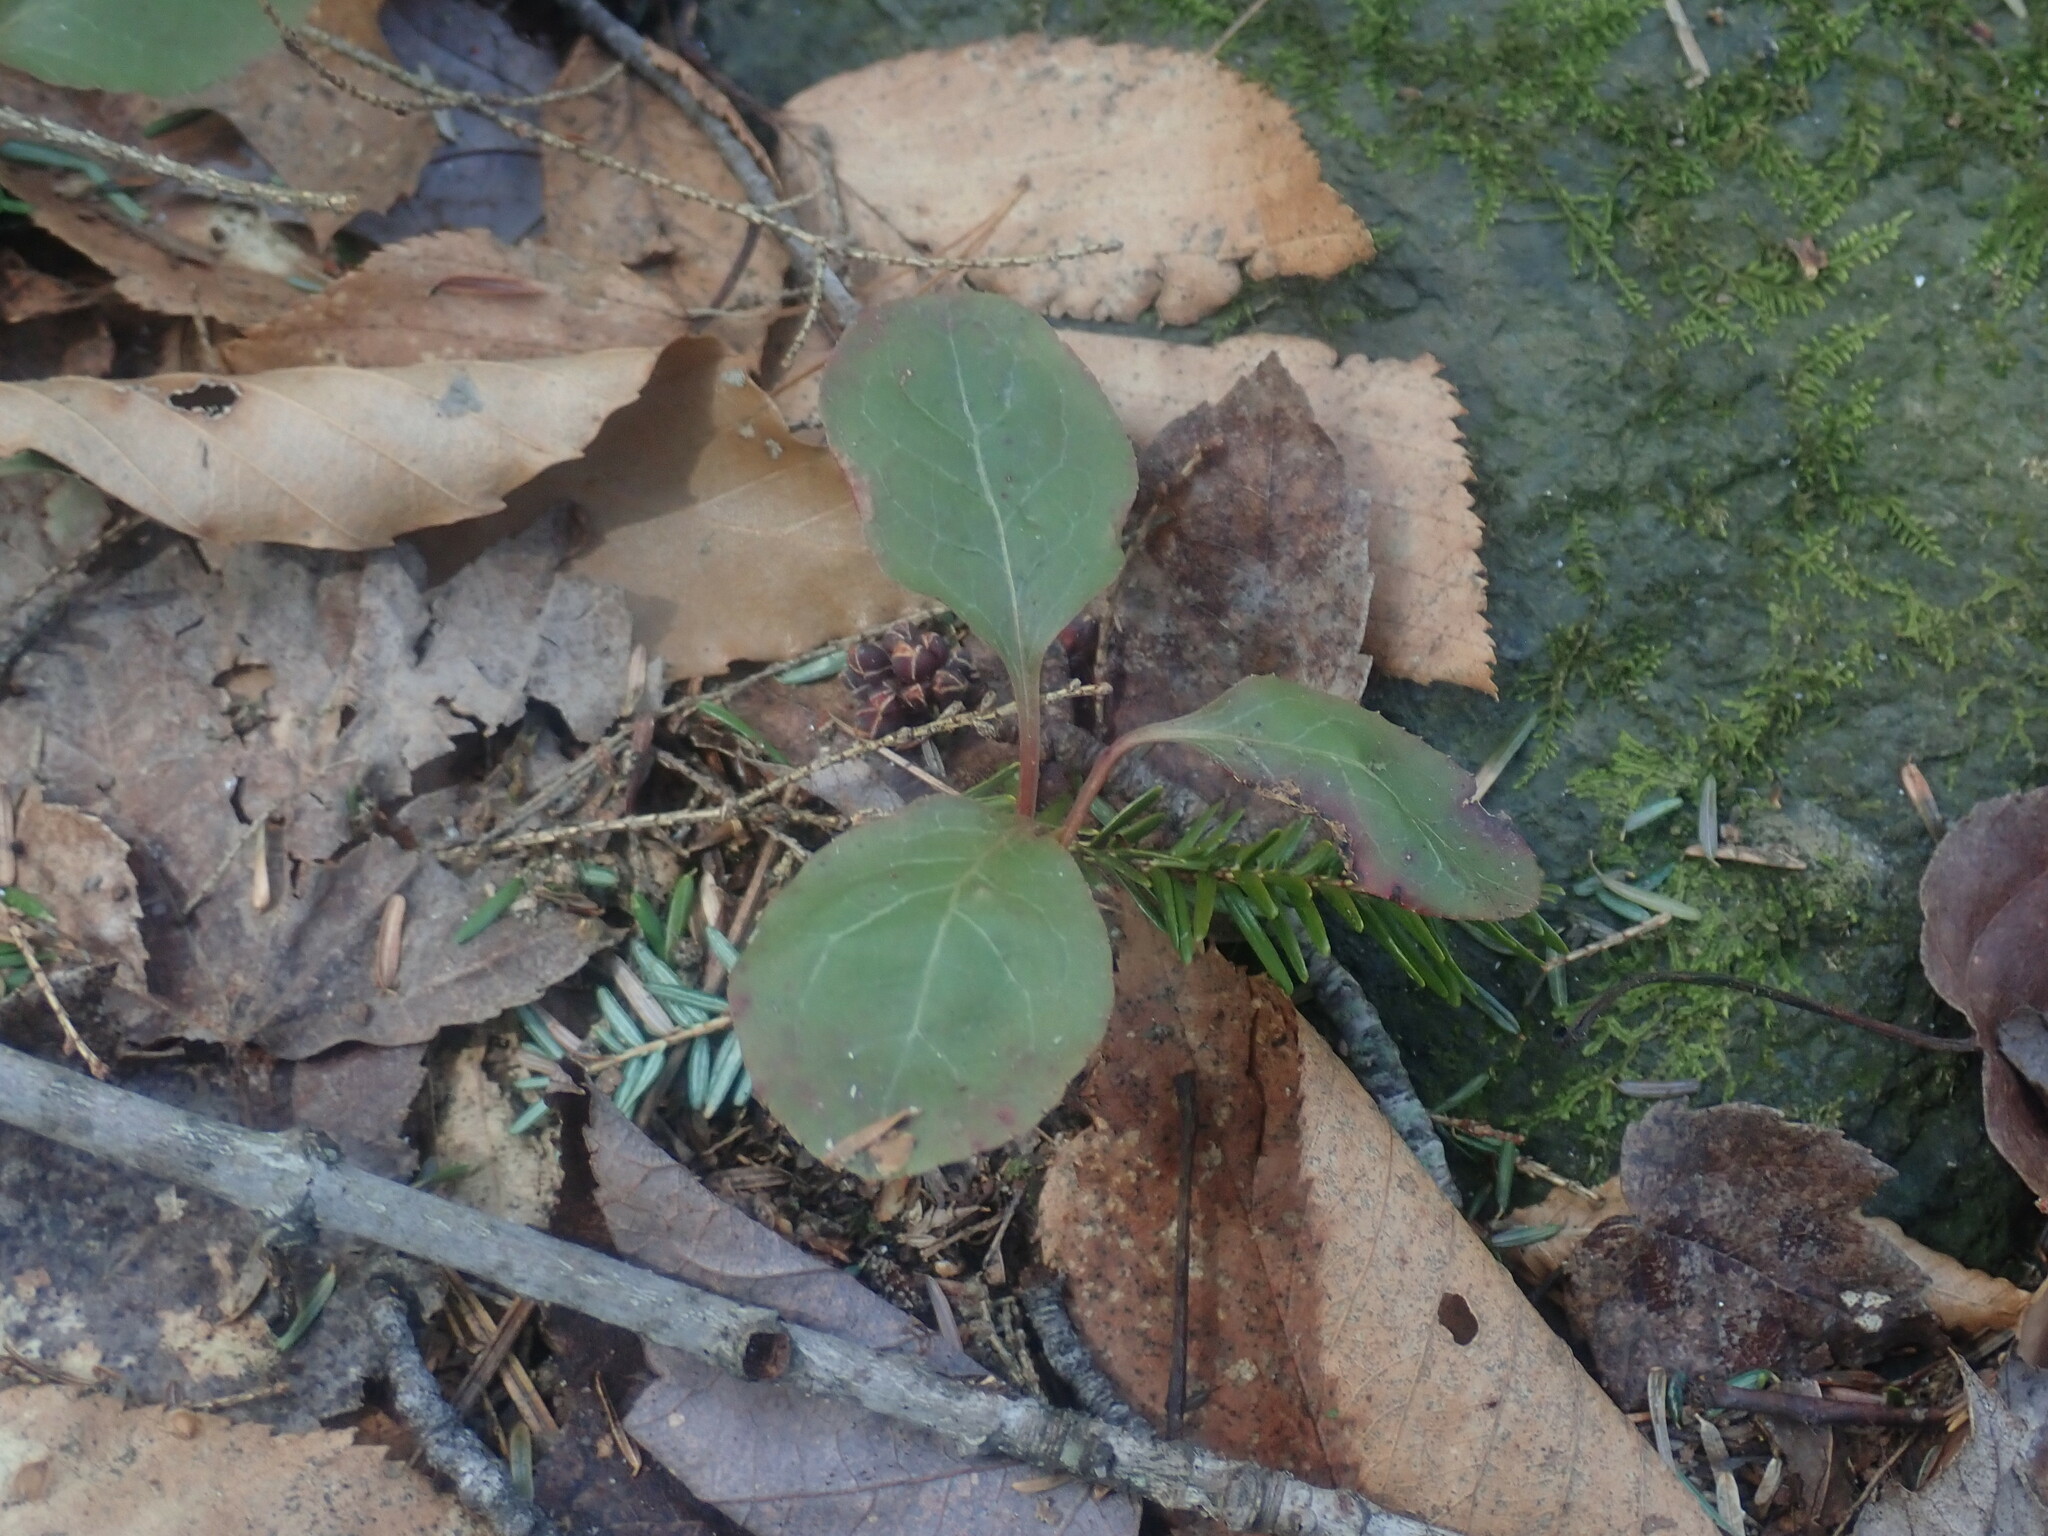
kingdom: Plantae
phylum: Tracheophyta
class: Magnoliopsida
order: Ericales
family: Ericaceae
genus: Pyrola
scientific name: Pyrola elliptica
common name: Shinleaf
